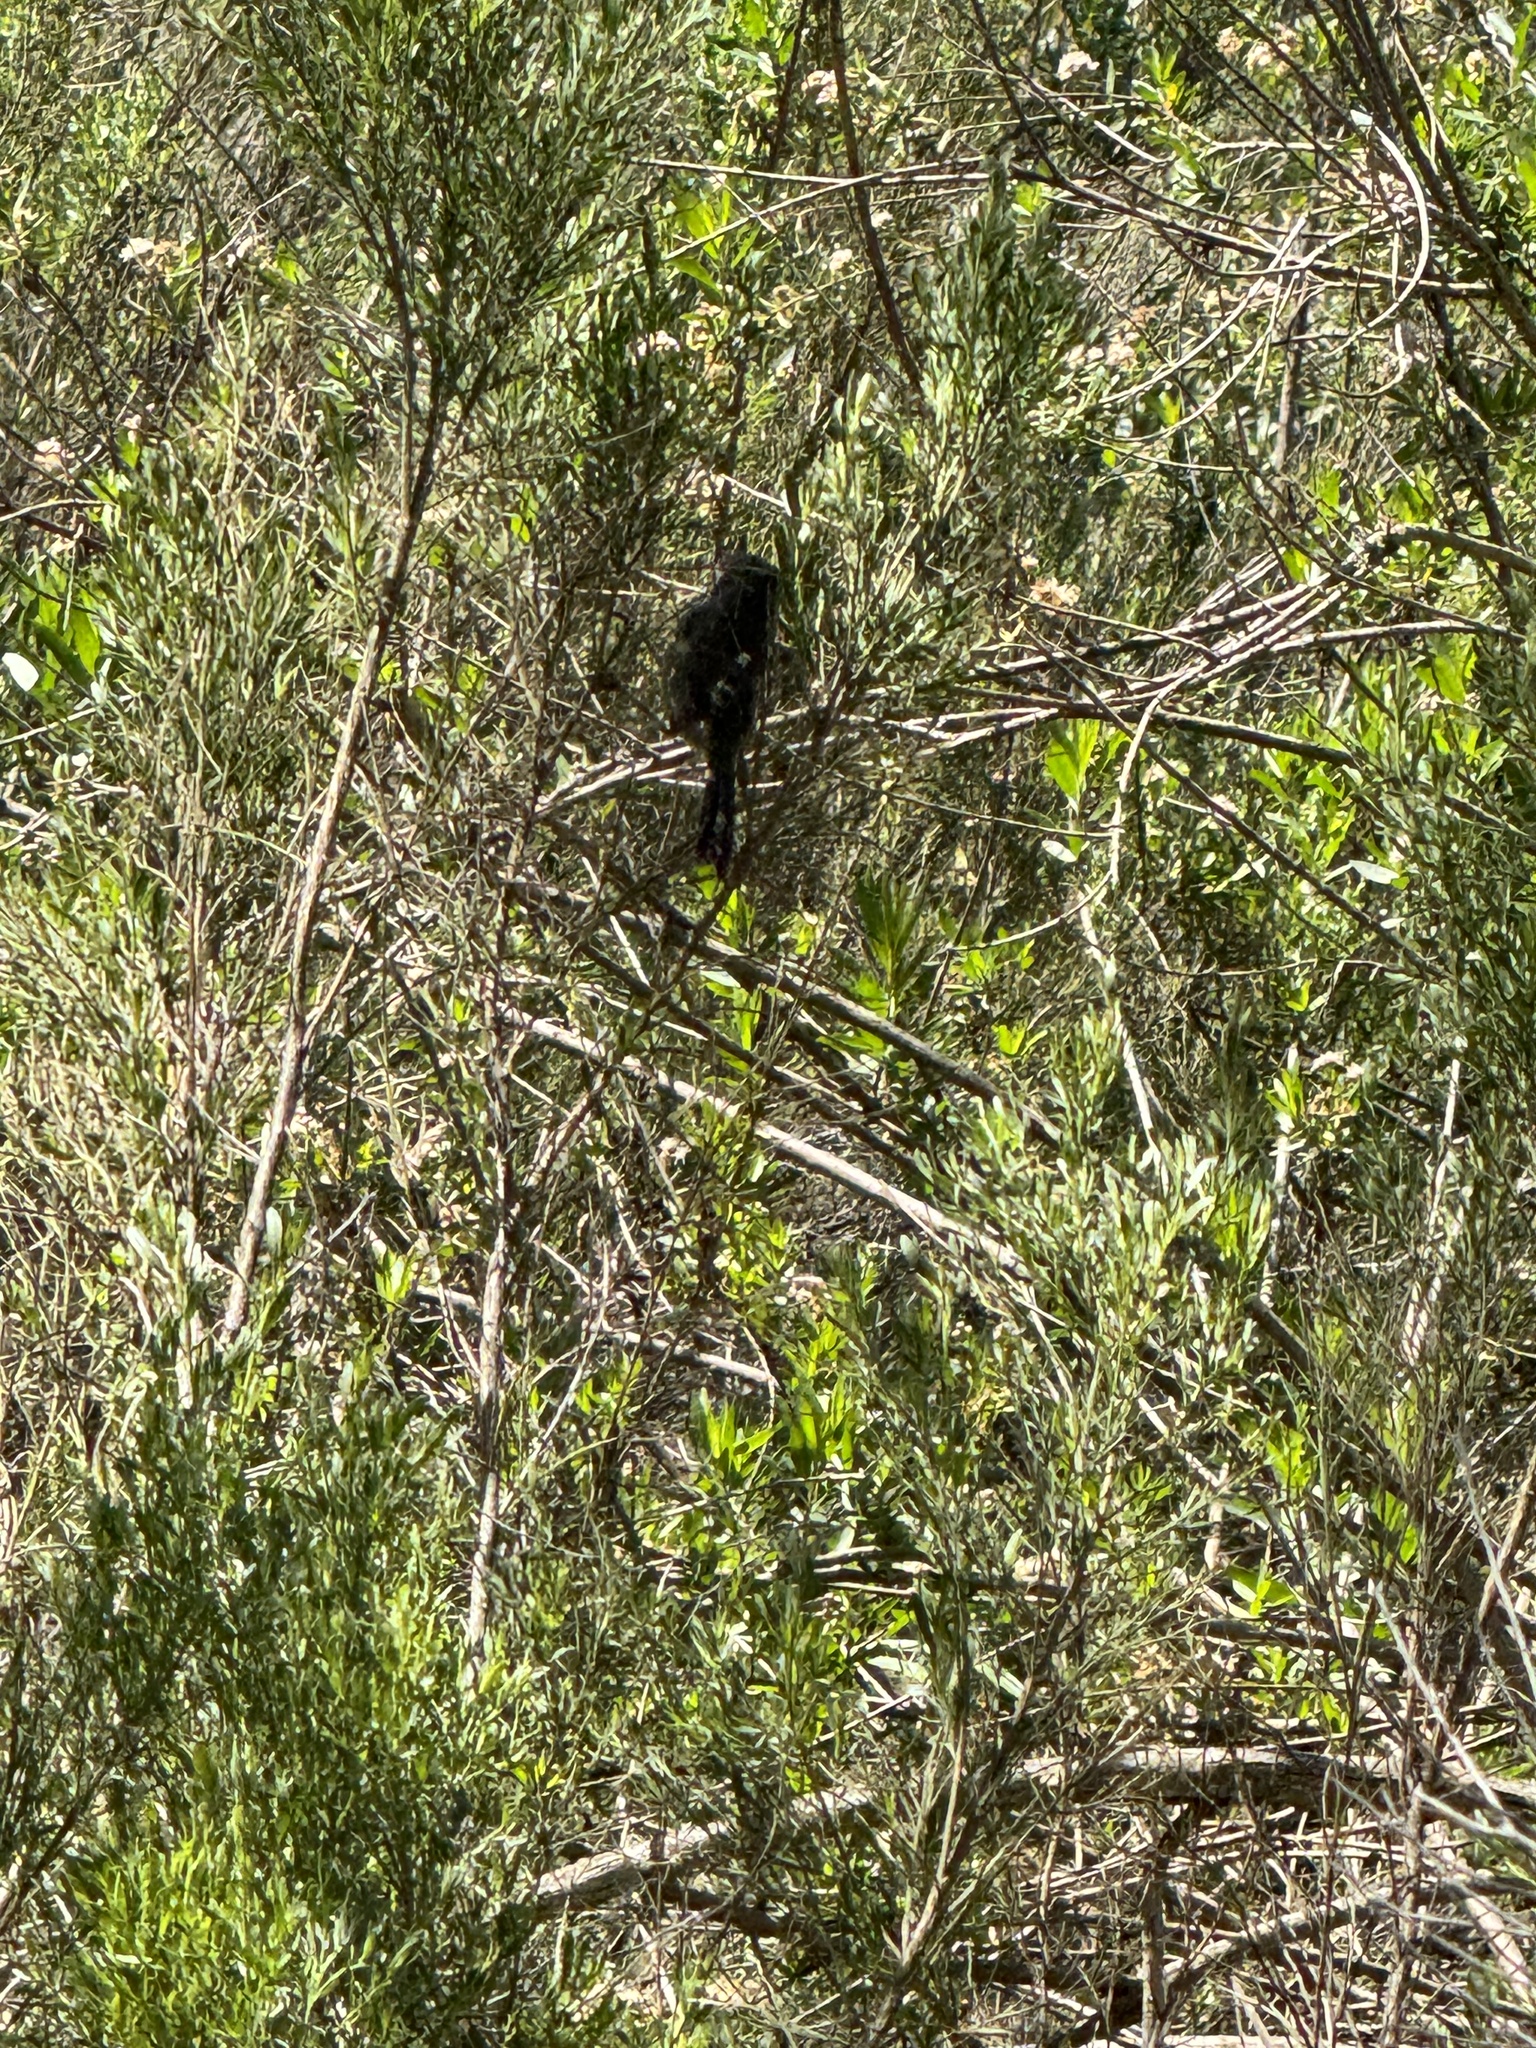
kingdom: Animalia
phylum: Chordata
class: Aves
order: Passeriformes
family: Sylviidae
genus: Chamaea
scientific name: Chamaea fasciata
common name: Wrentit
